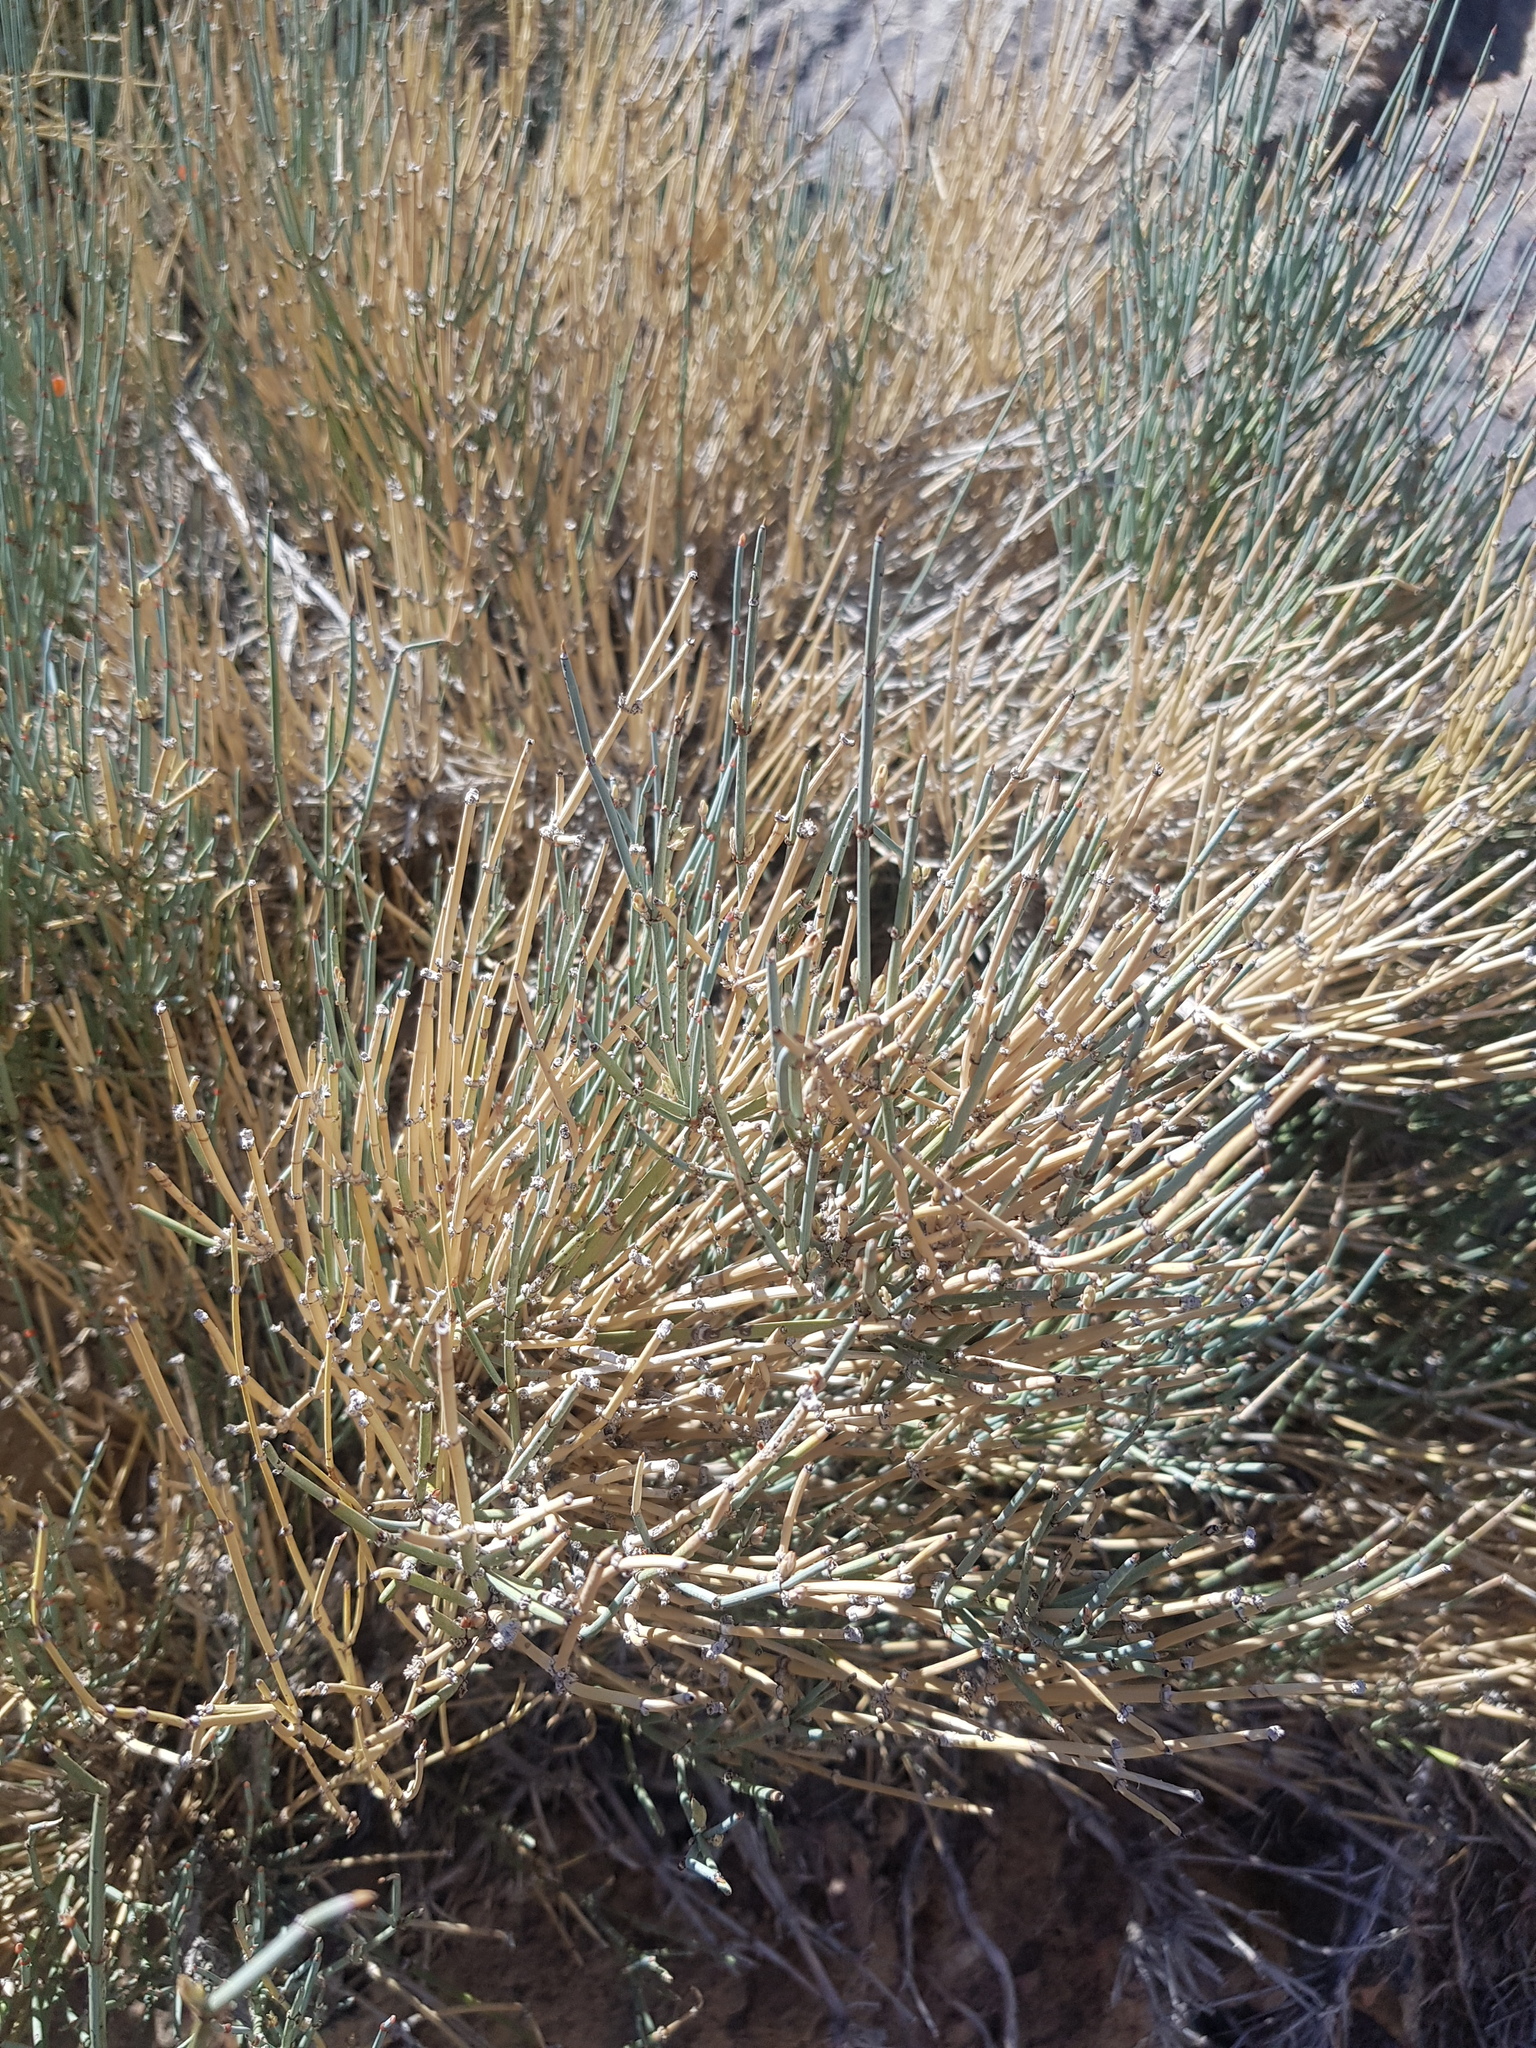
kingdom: Plantae
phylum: Tracheophyta
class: Gnetopsida
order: Ephedrales
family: Ephedraceae
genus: Ephedra
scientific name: Ephedra equisetina
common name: Mongolian ephedra
